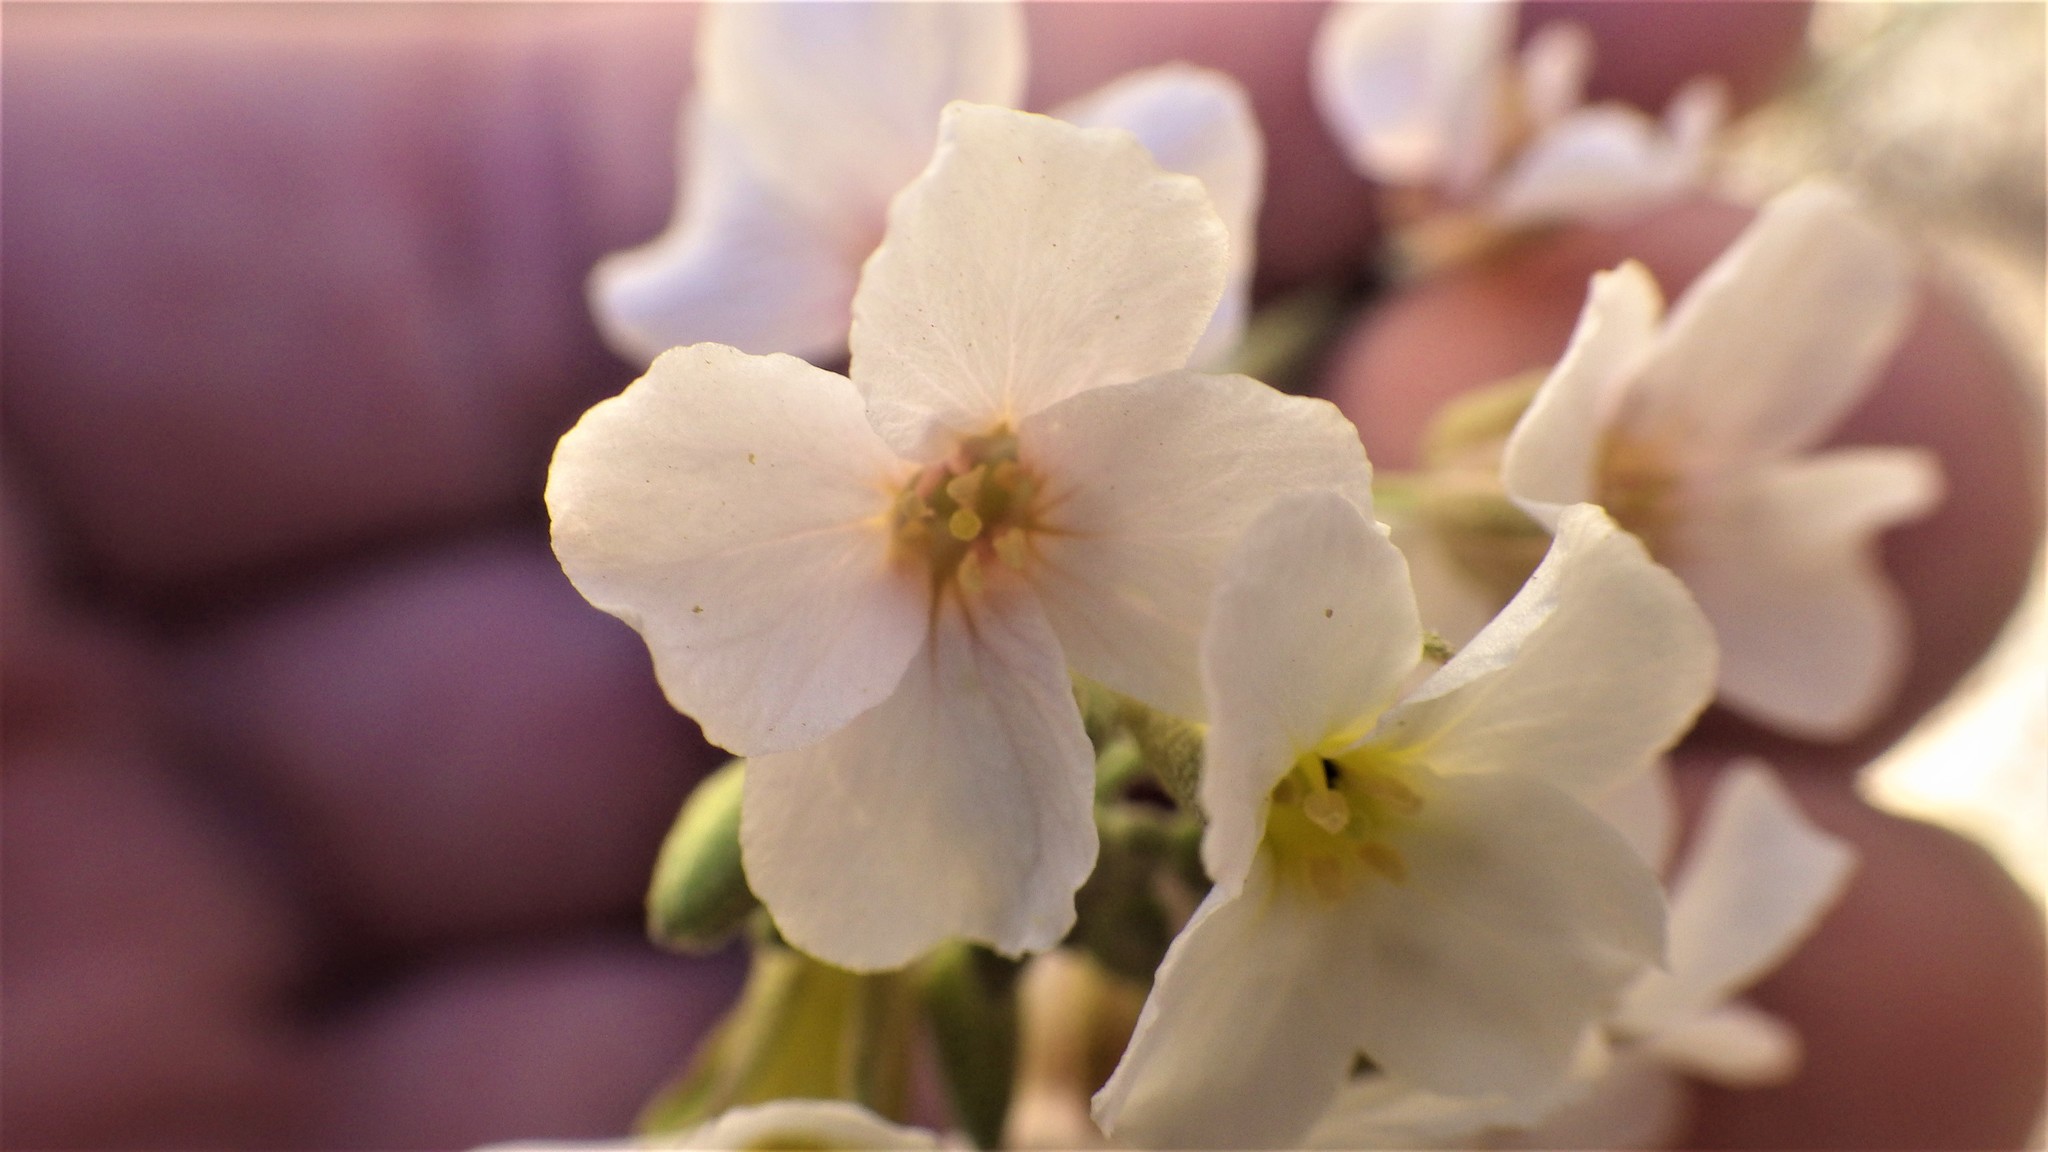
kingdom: Plantae
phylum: Tracheophyta
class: Magnoliopsida
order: Brassicales
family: Brassicaceae
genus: Physaria
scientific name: Physaria purpurea
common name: Rose bladderpod
